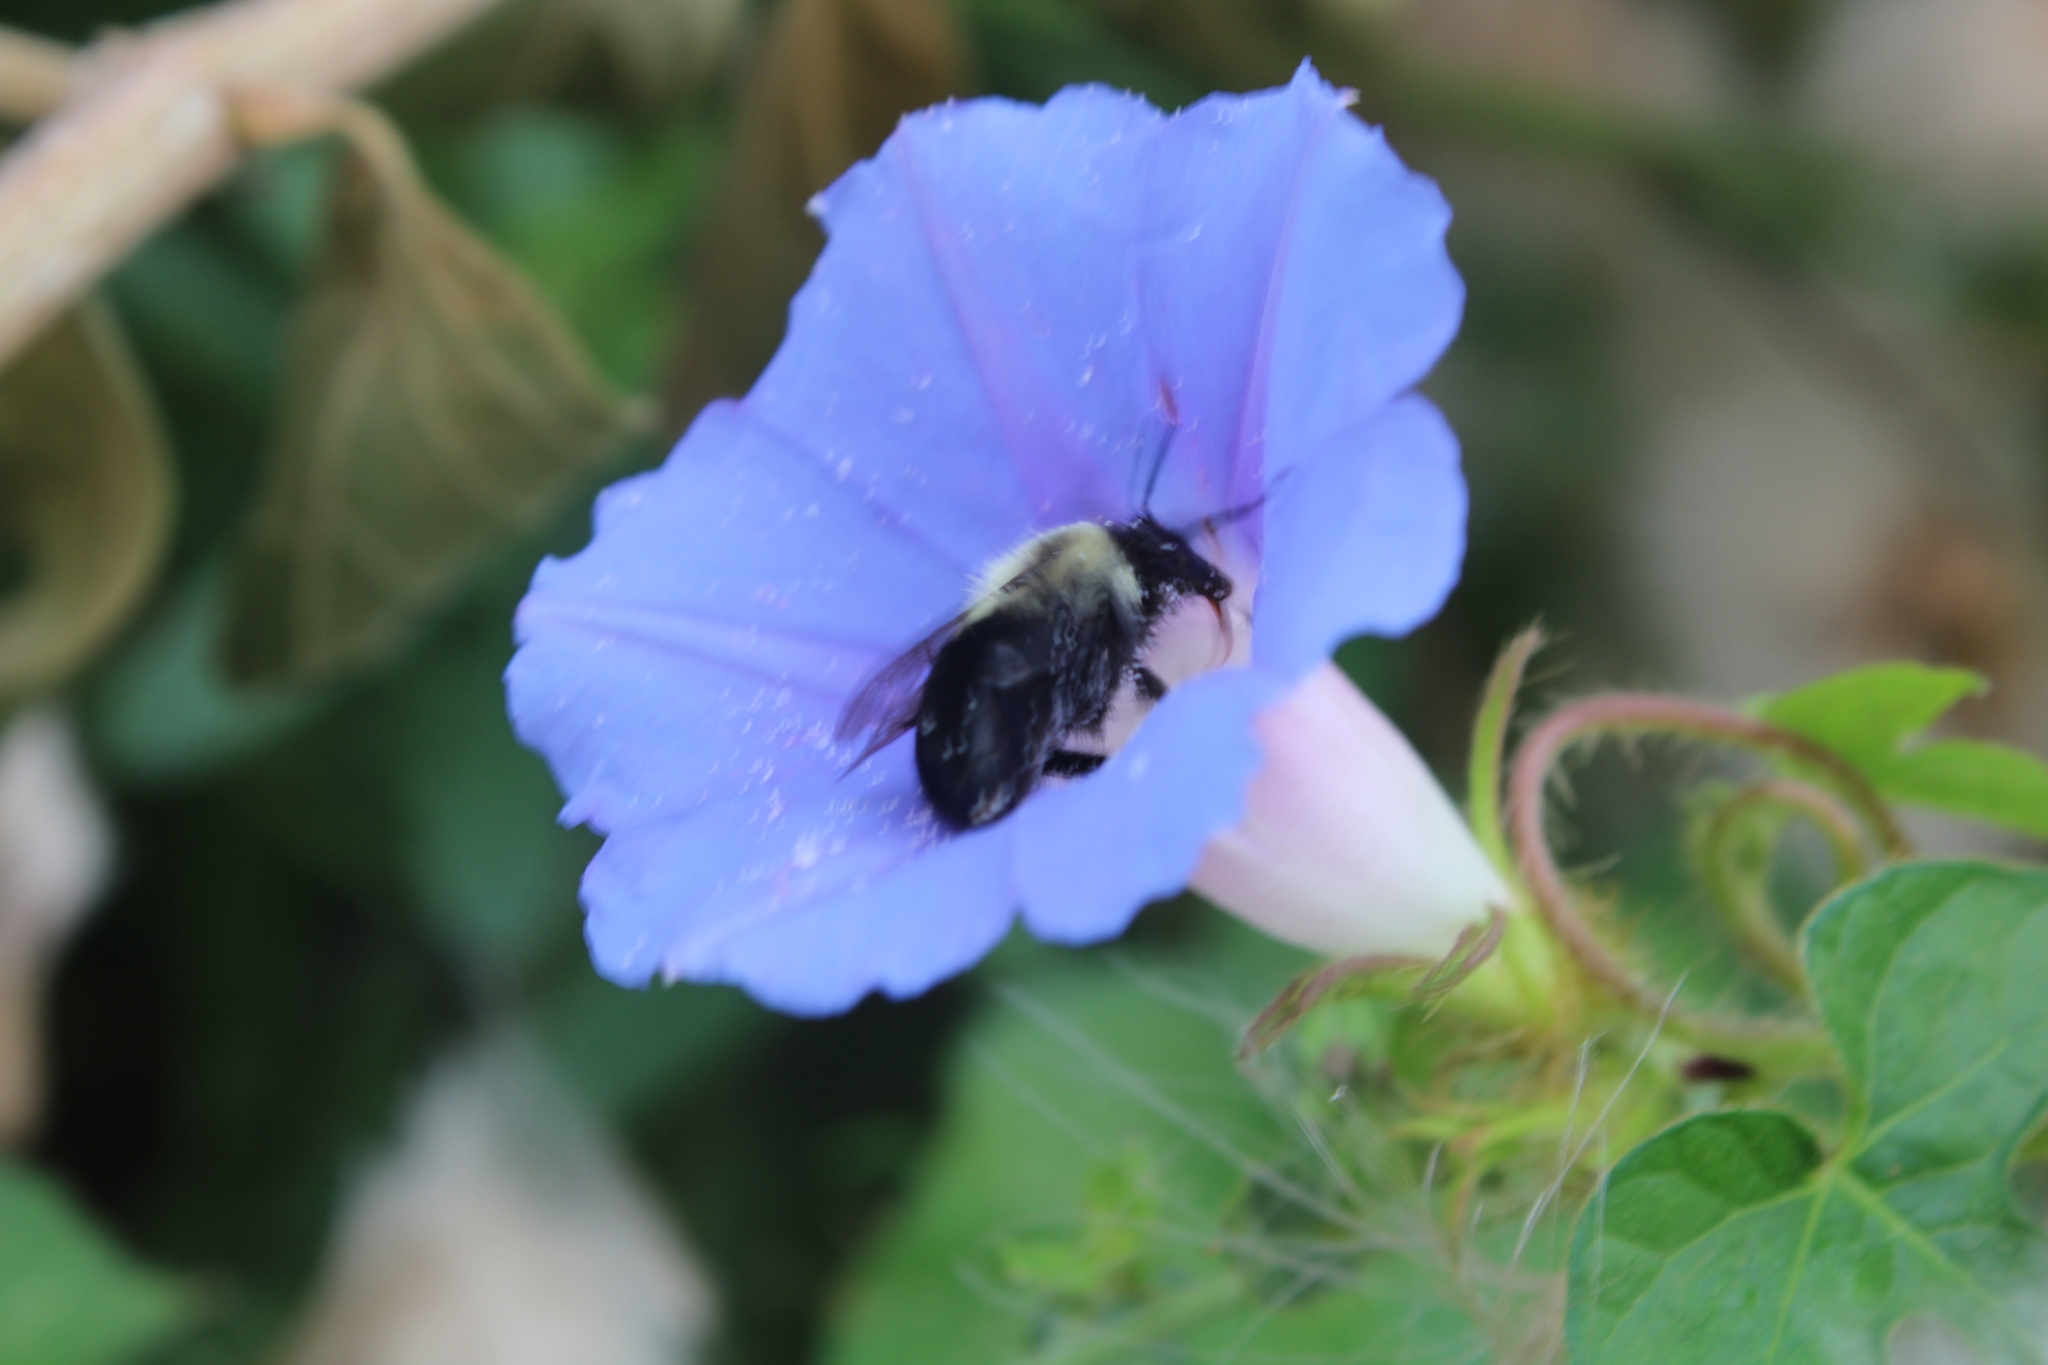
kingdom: Animalia
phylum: Arthropoda
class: Insecta
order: Hymenoptera
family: Apidae
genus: Bombus
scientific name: Bombus impatiens
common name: Common eastern bumble bee
